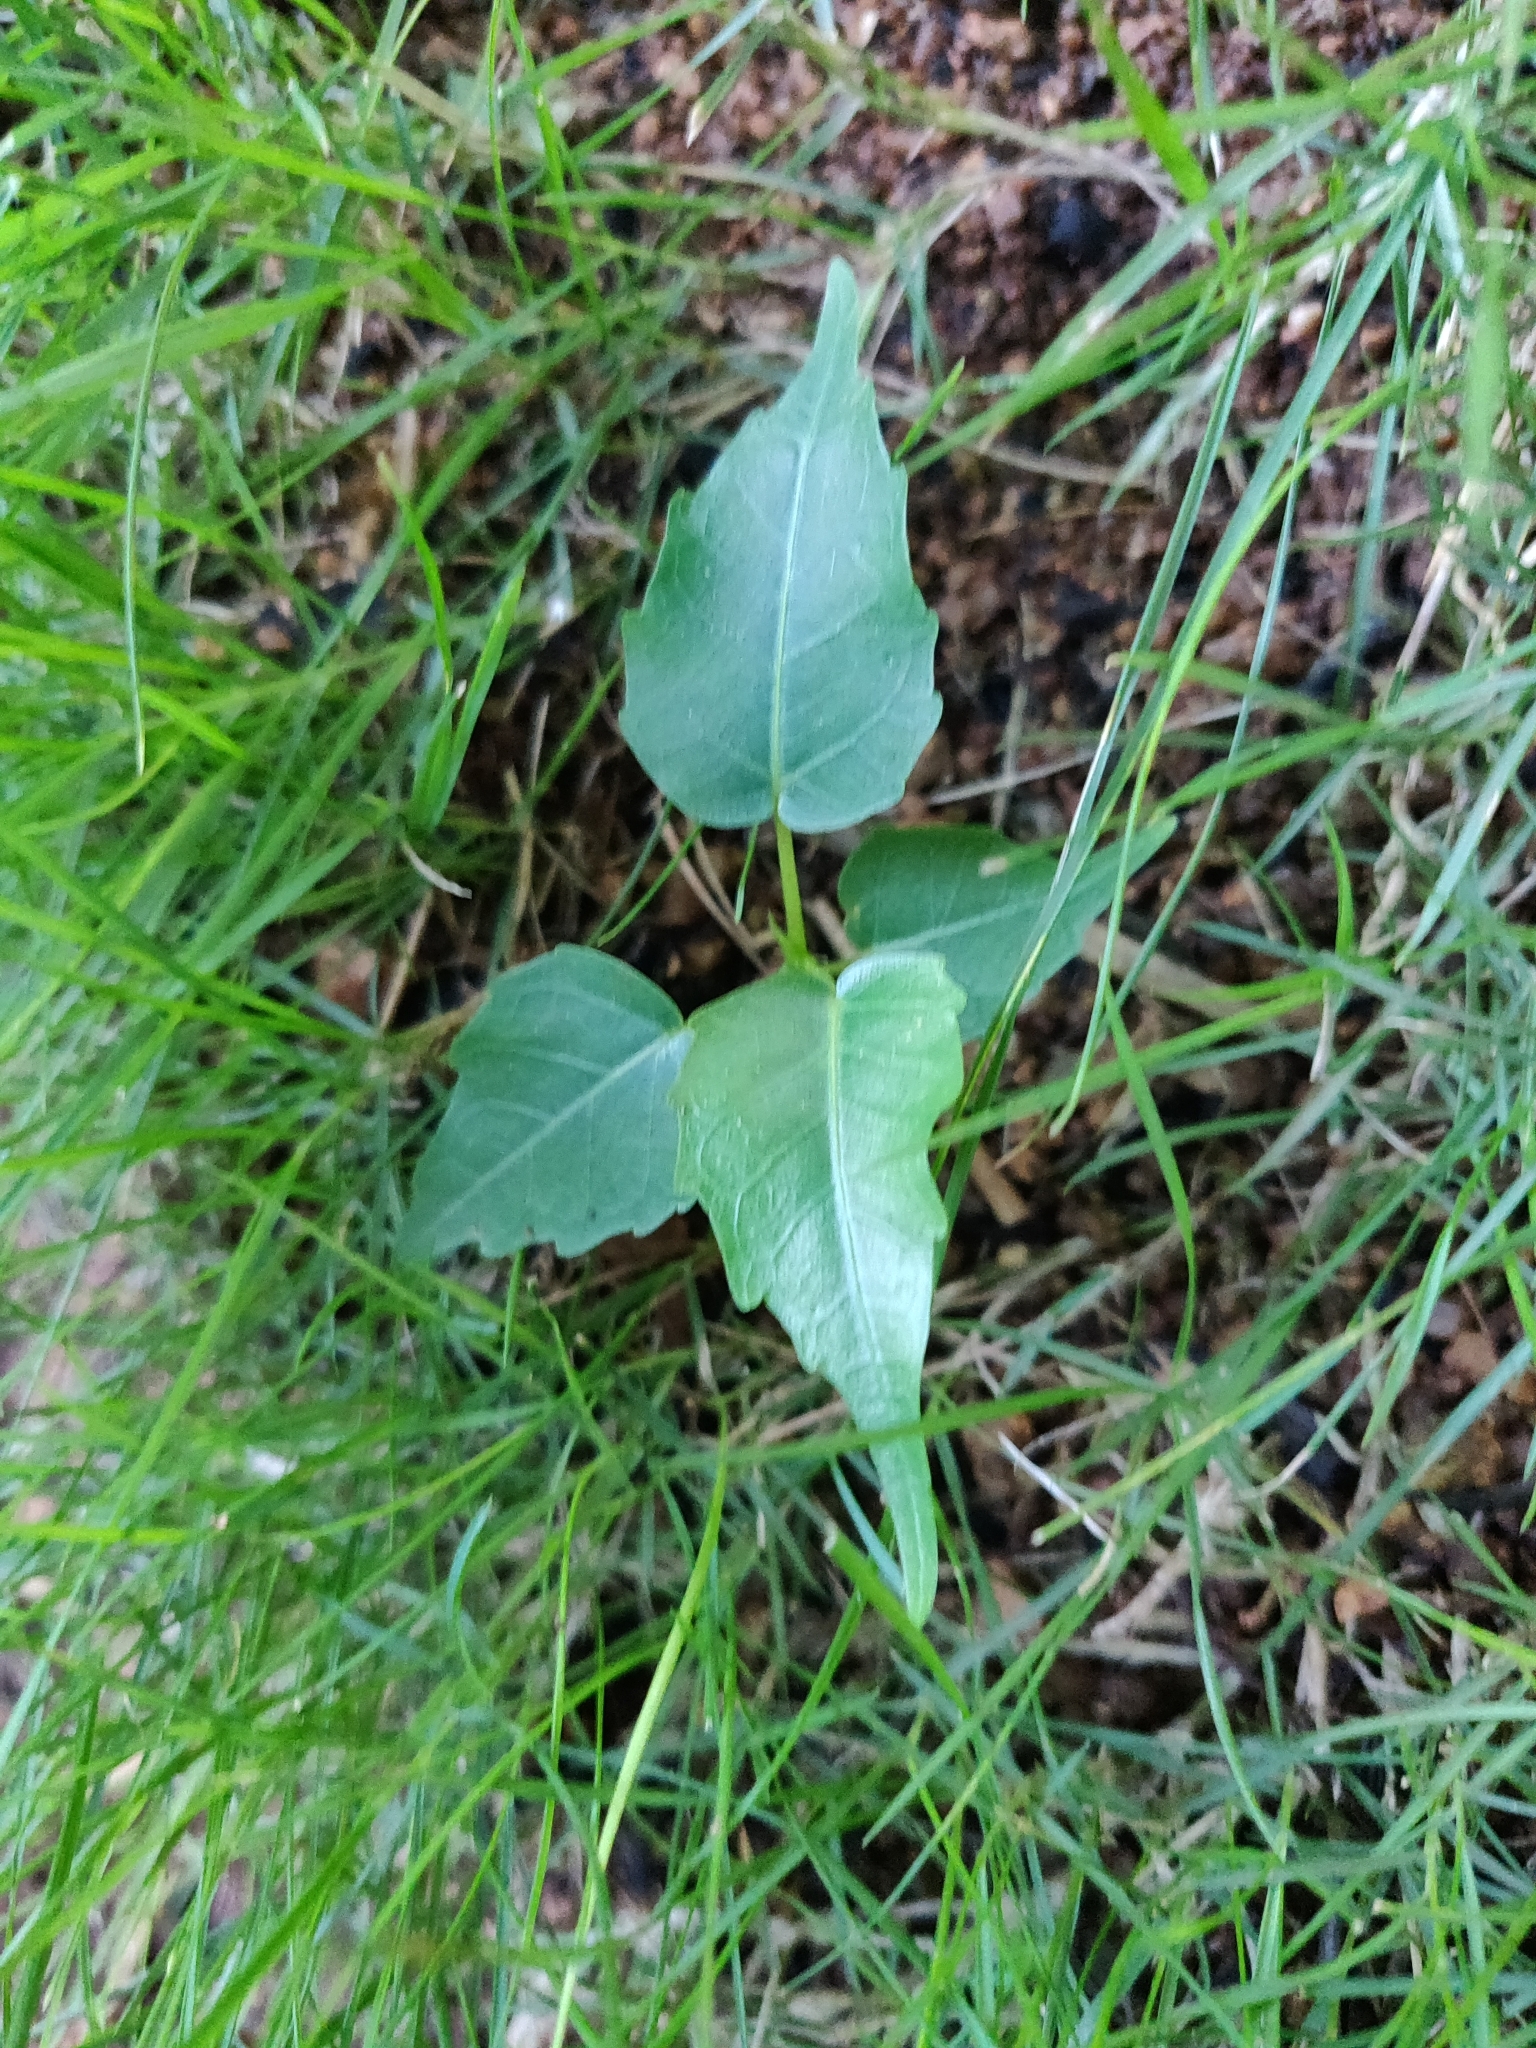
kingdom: Plantae
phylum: Tracheophyta
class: Magnoliopsida
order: Rosales
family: Moraceae
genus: Ficus
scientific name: Ficus religiosa
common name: Bodhi tree
